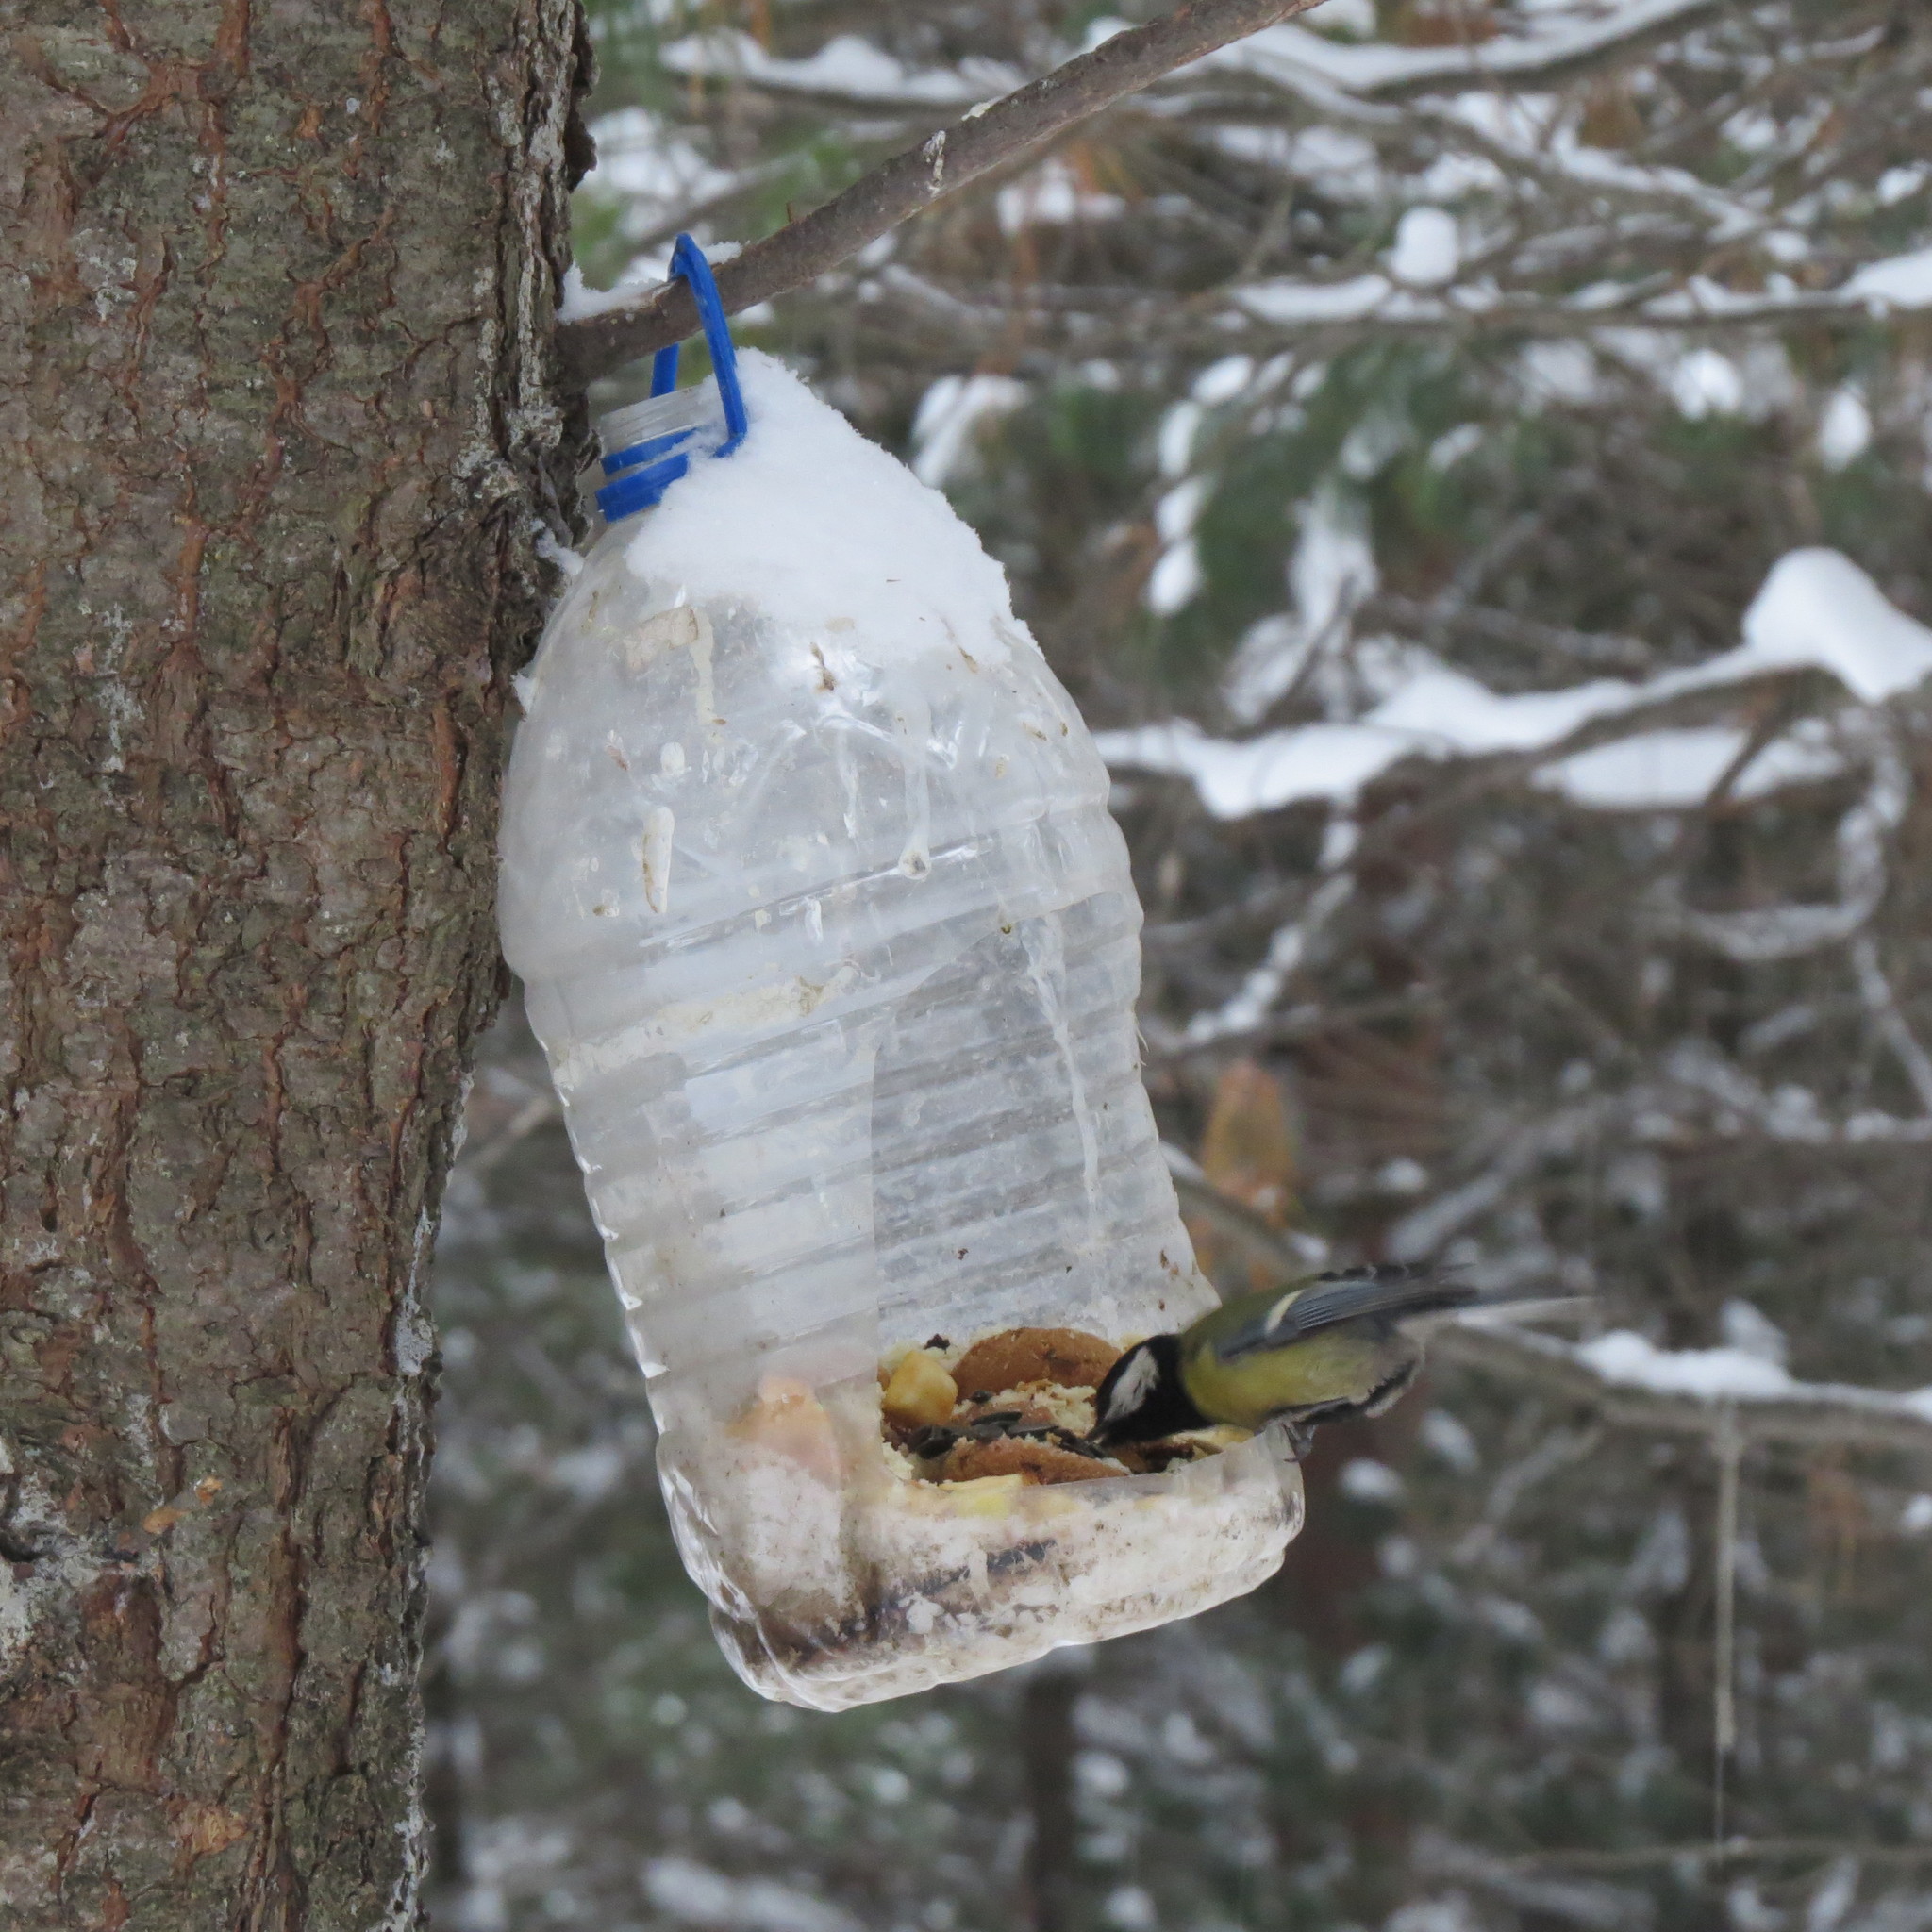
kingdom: Animalia
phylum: Chordata
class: Aves
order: Passeriformes
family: Paridae
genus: Parus
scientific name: Parus major
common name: Great tit
